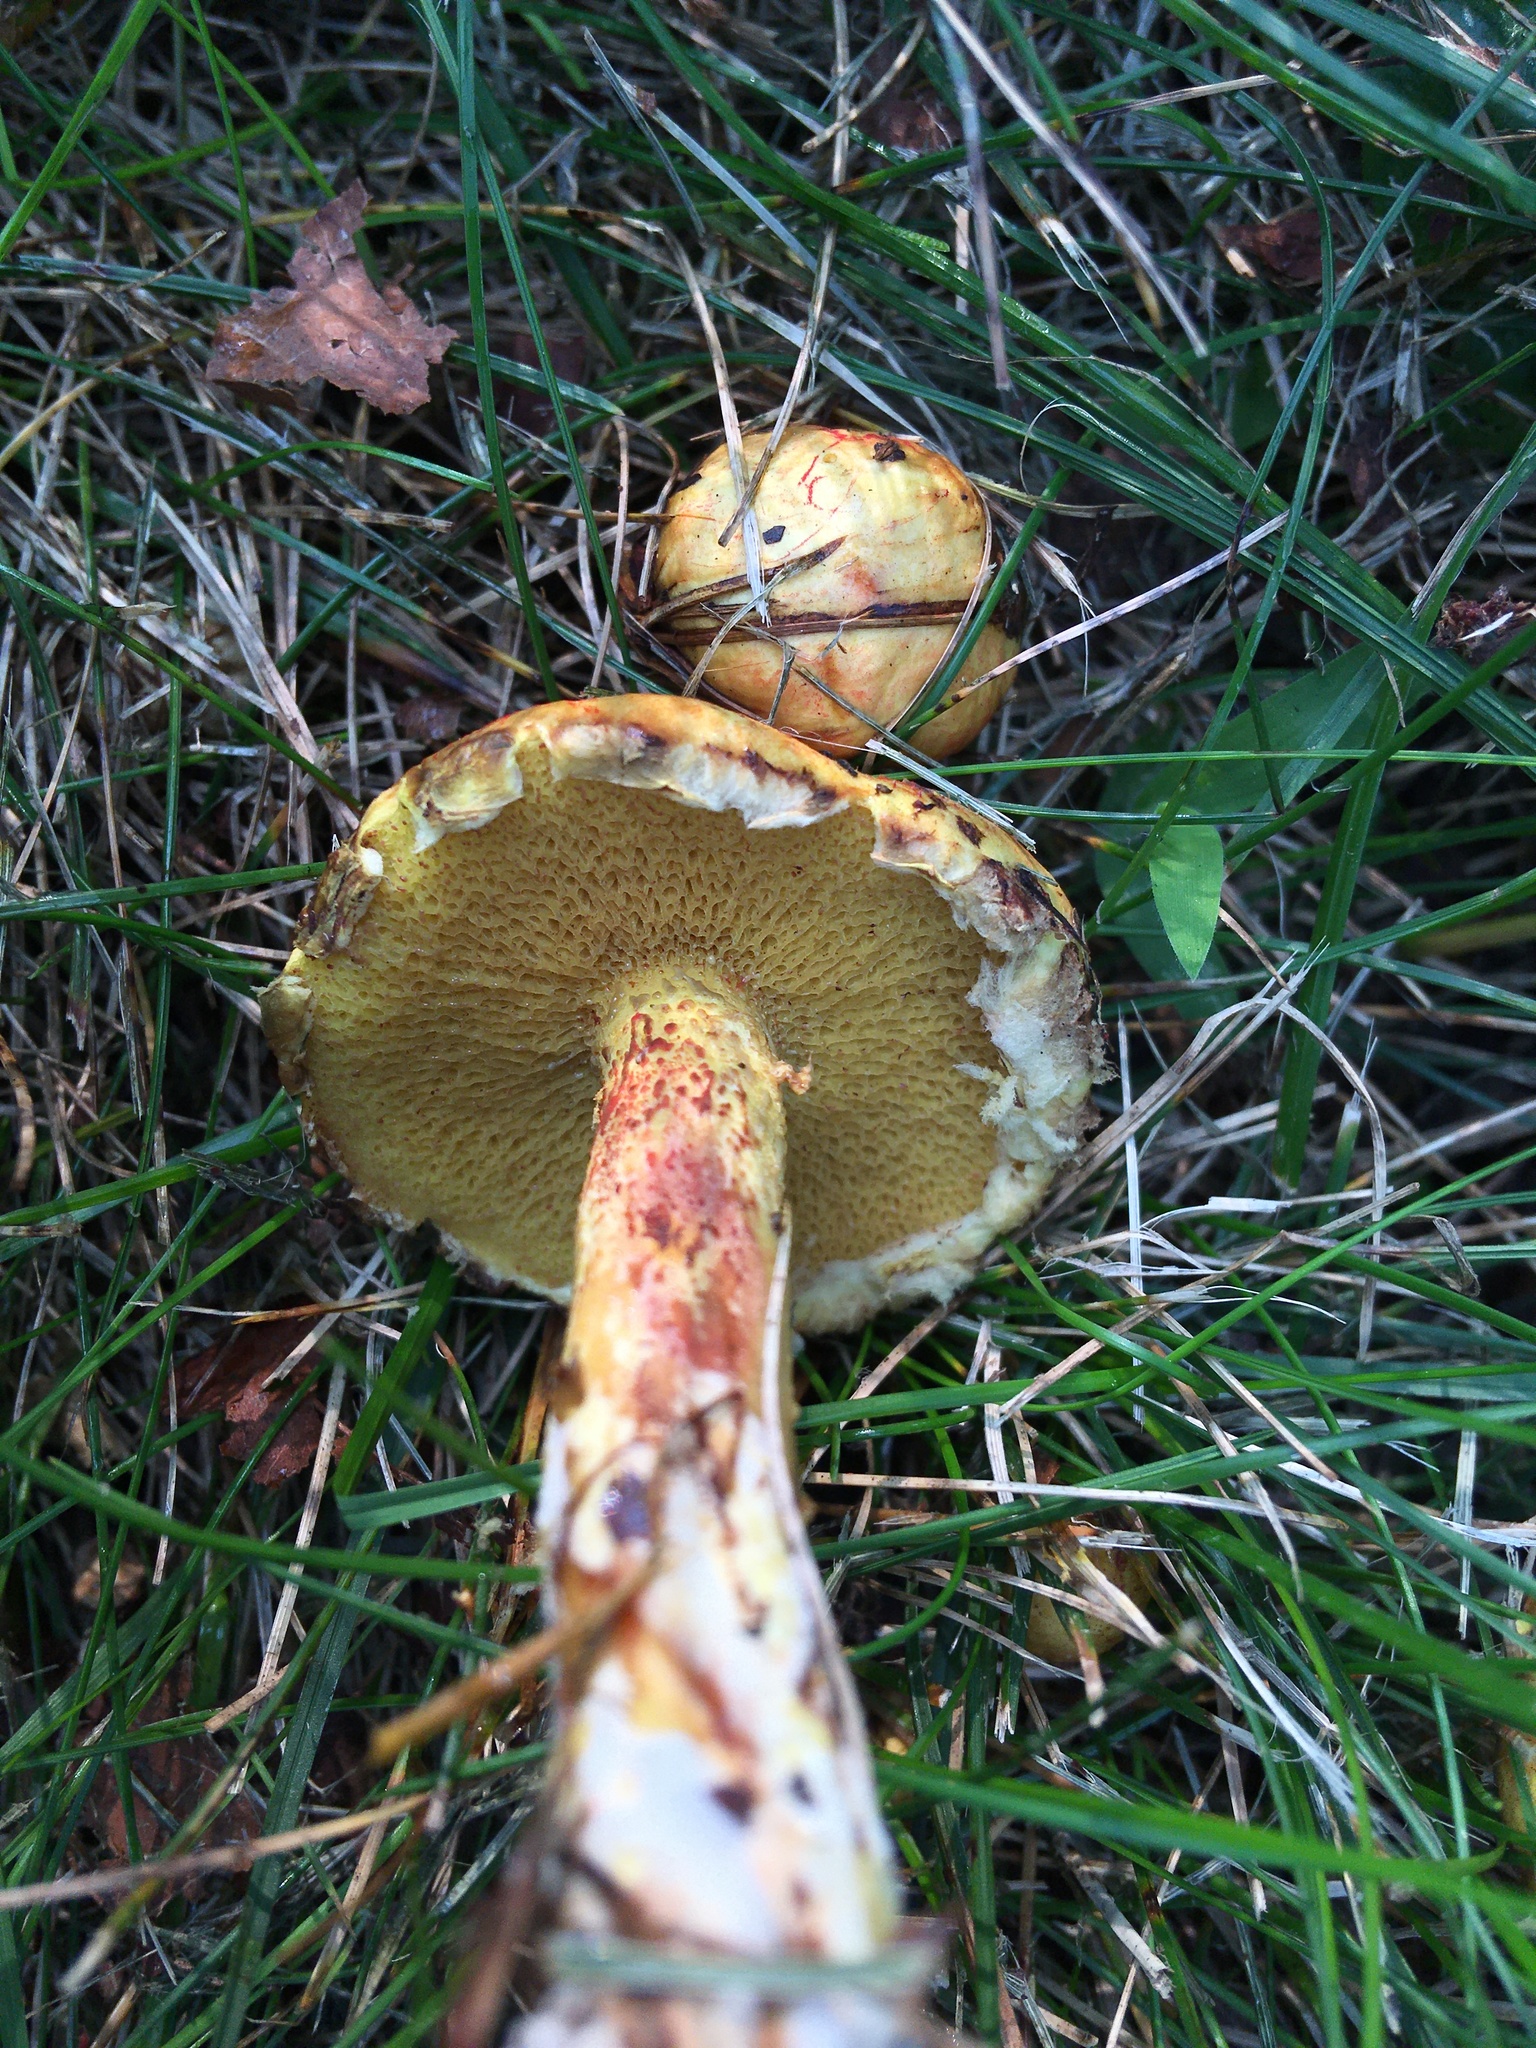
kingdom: Fungi
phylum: Basidiomycota
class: Agaricomycetes
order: Boletales
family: Suillaceae
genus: Suillus
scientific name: Suillus americanus
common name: Chicken fat mushroom
